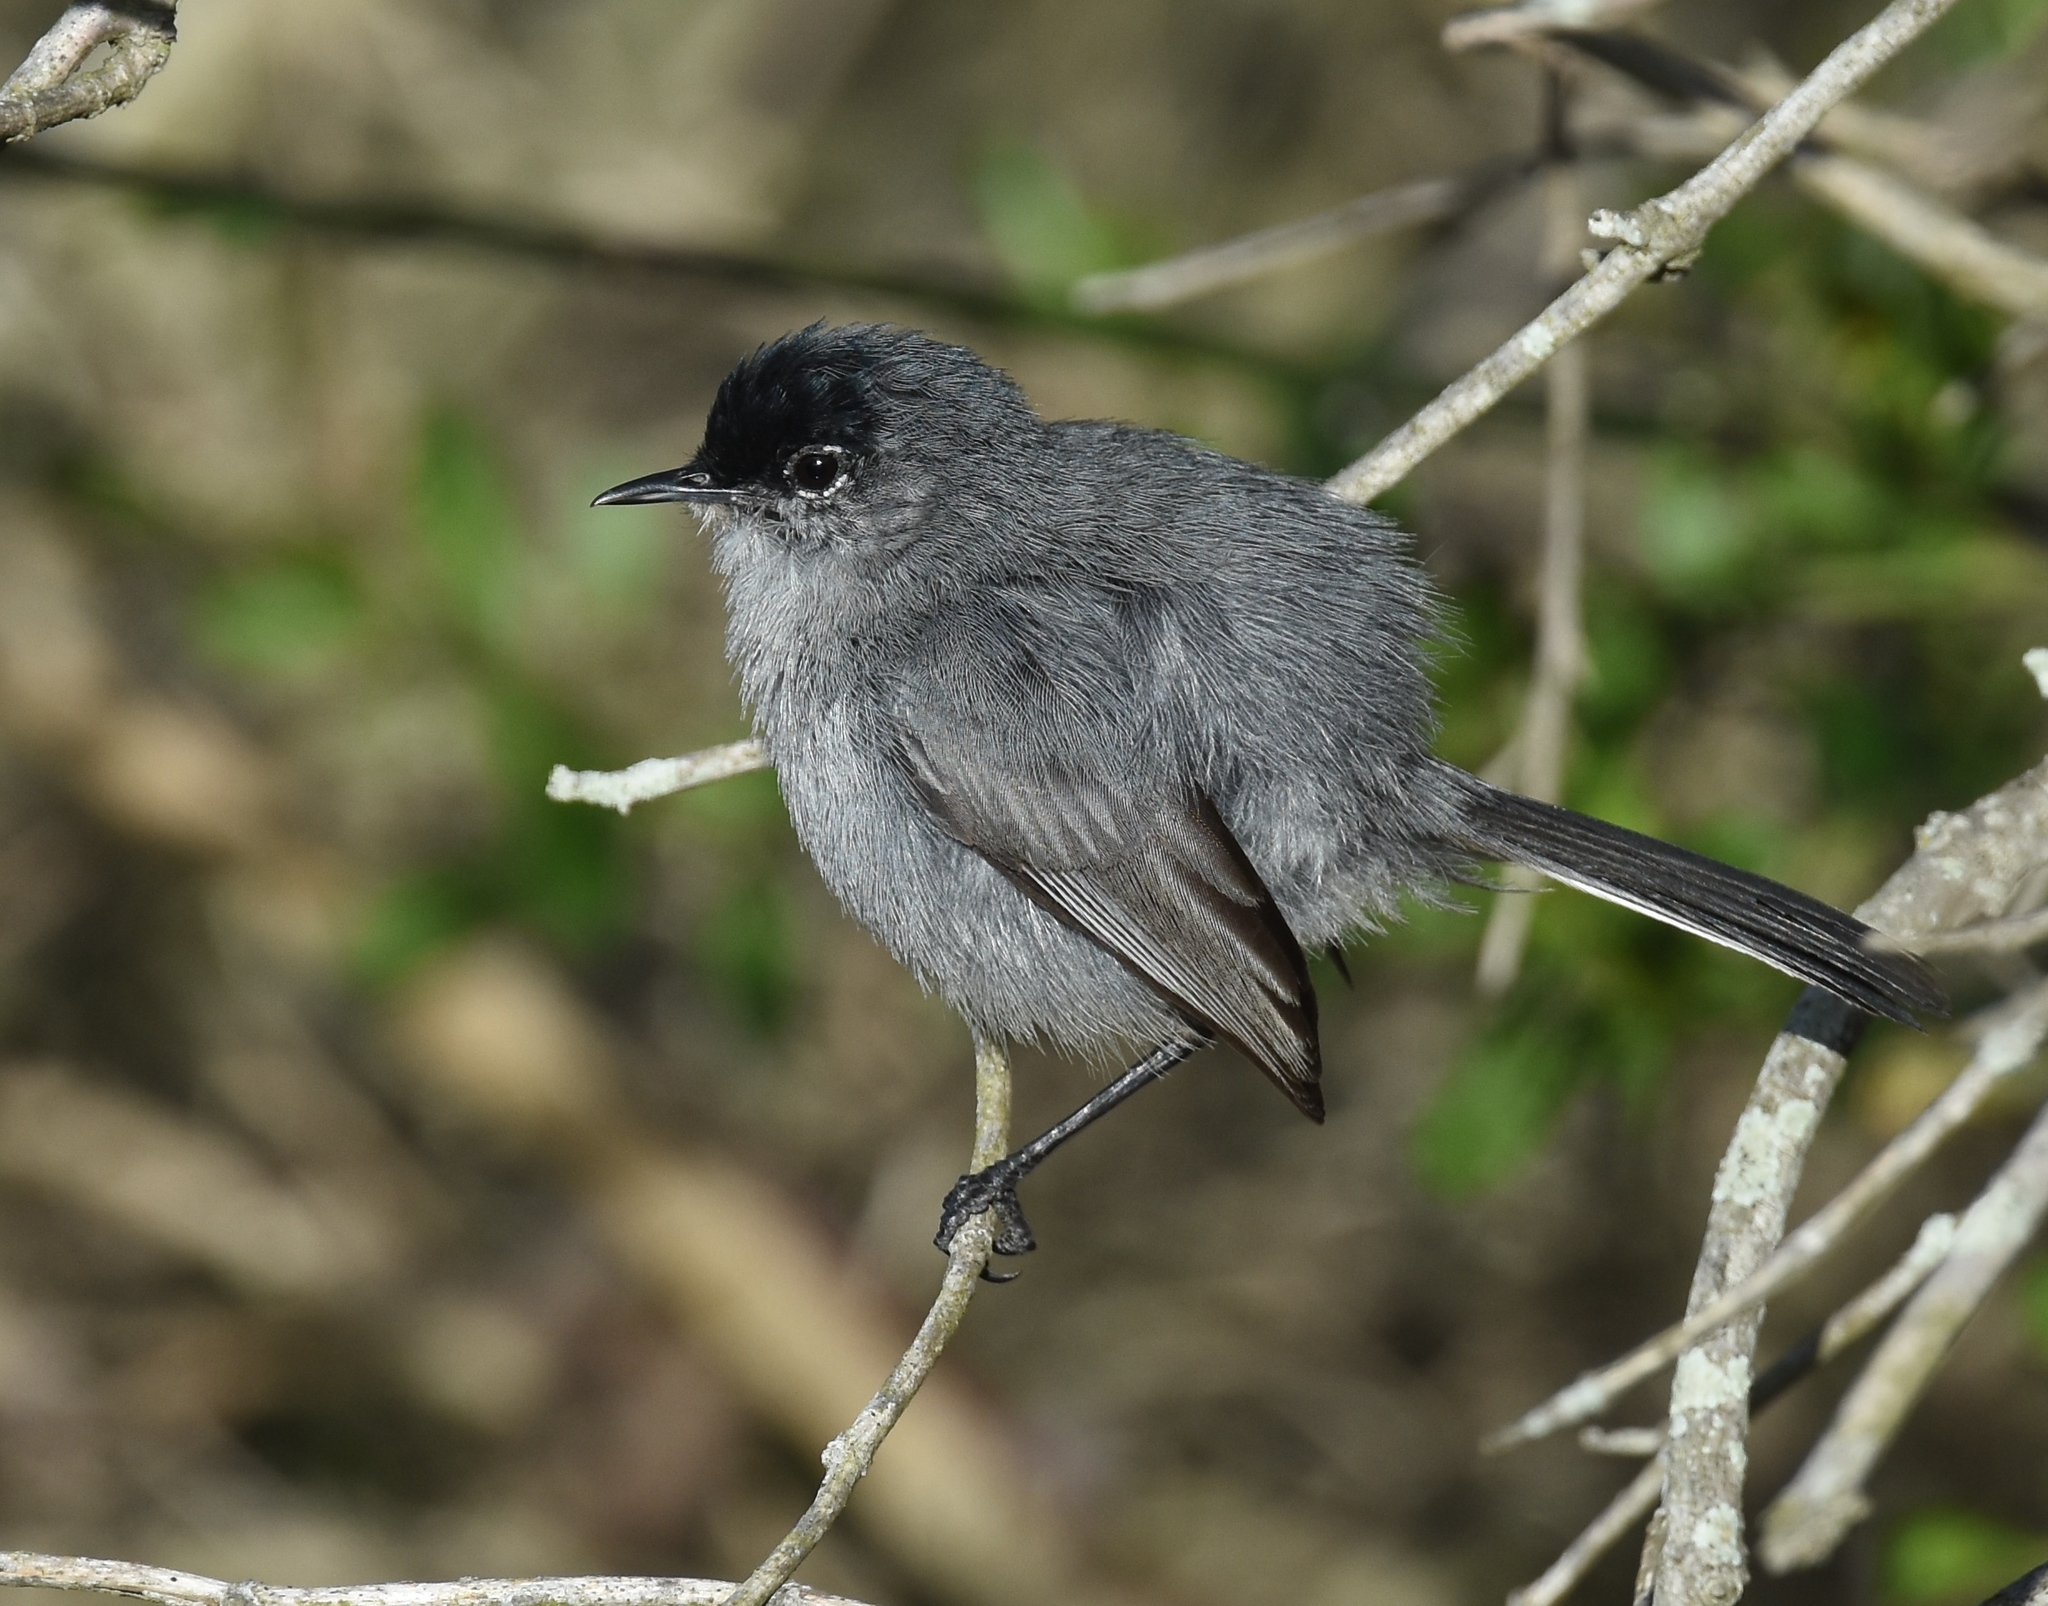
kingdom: Animalia
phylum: Chordata
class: Aves
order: Passeriformes
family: Polioptilidae
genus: Polioptila
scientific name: Polioptila californica
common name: California gnatcatcher
